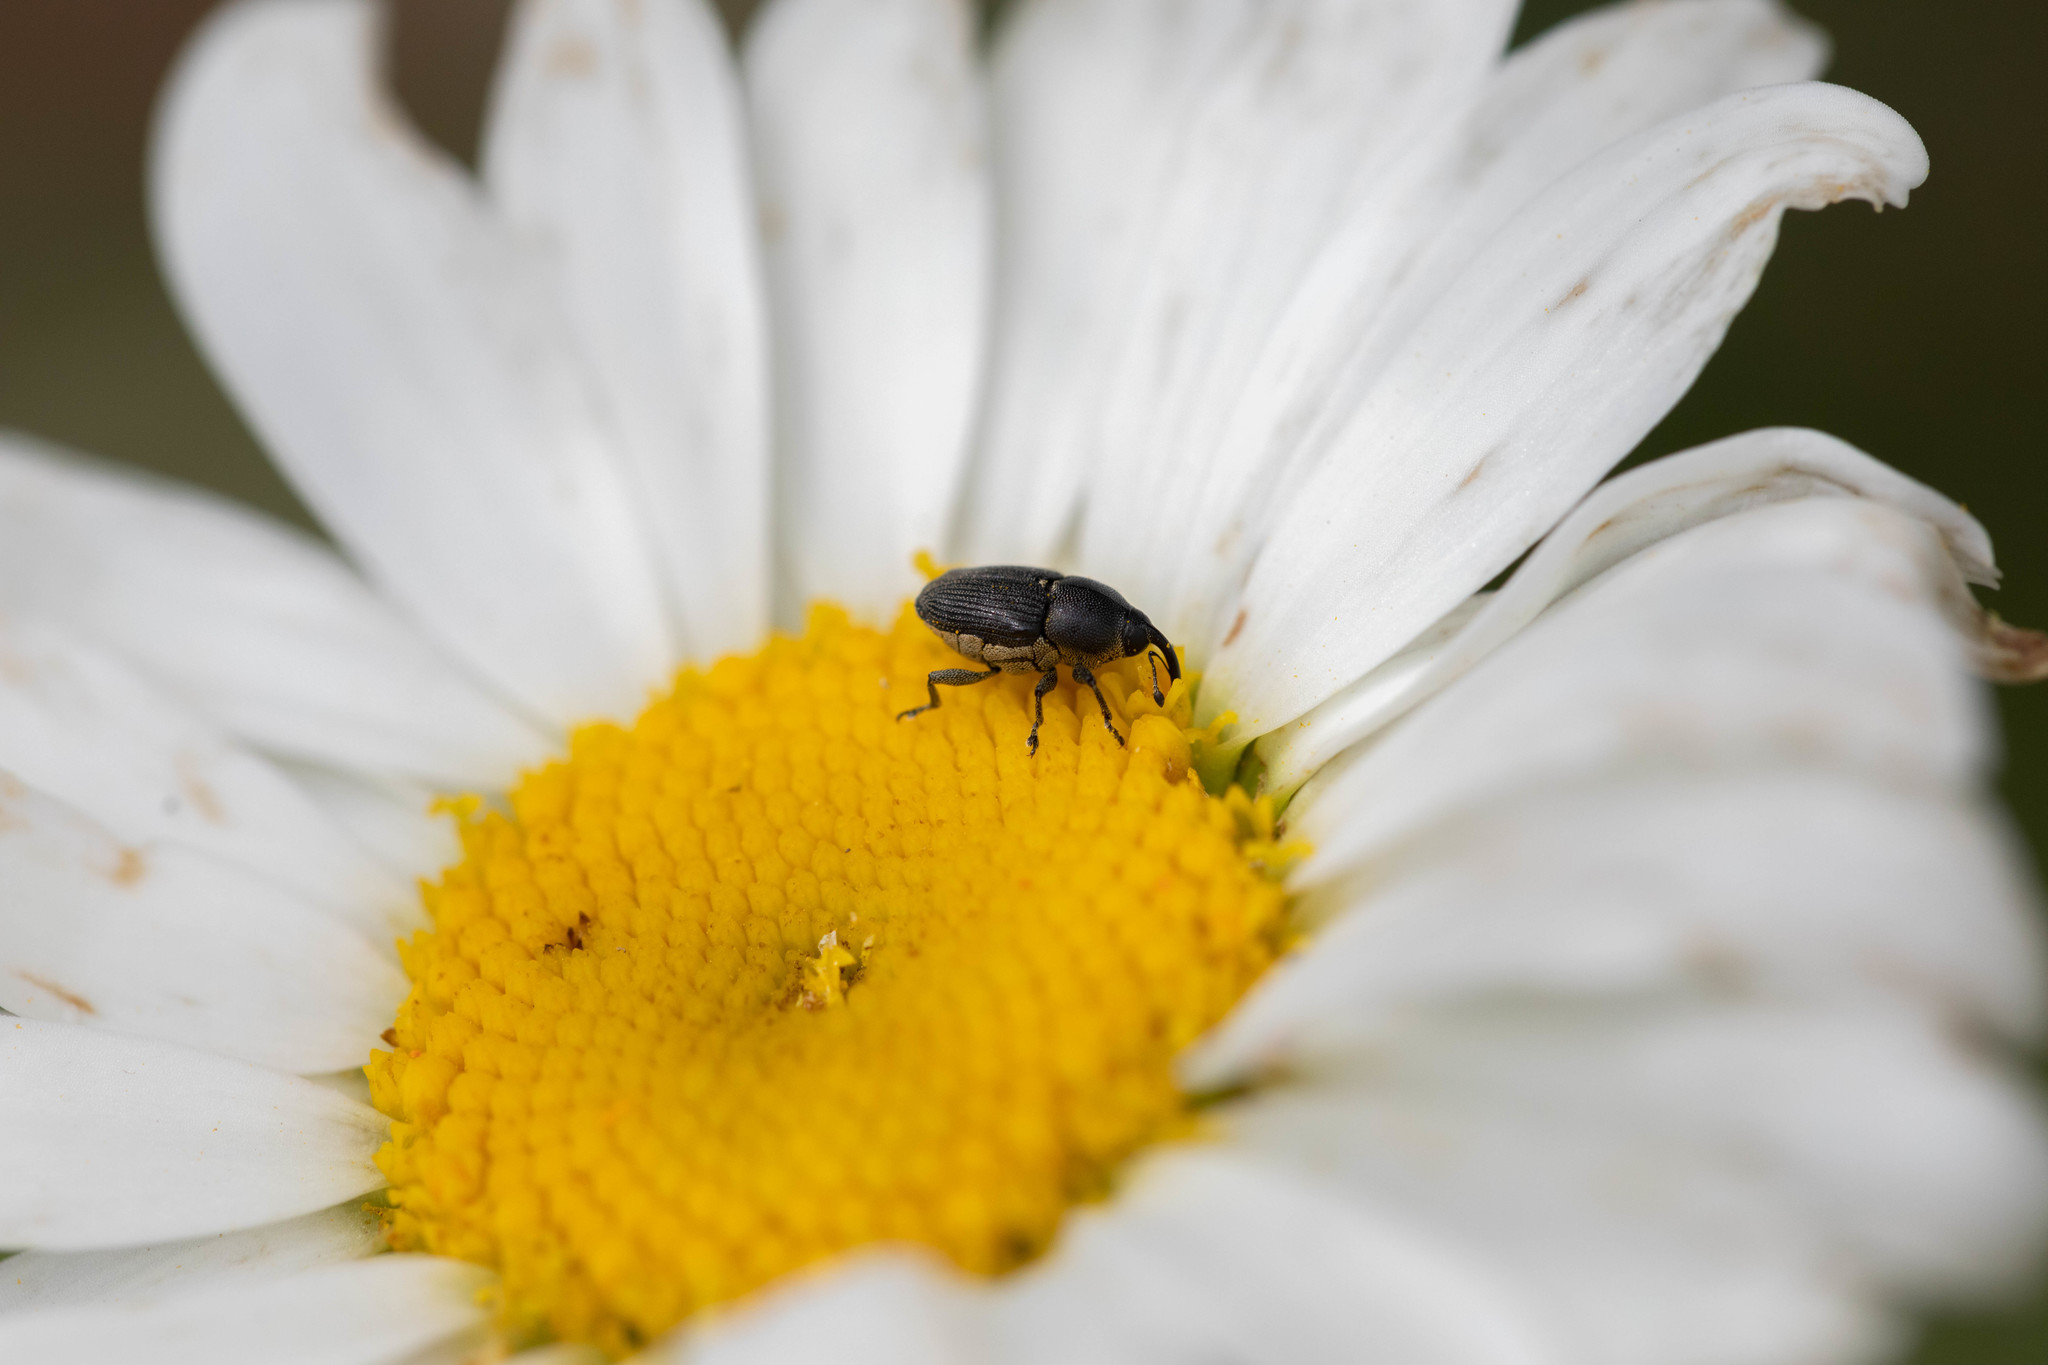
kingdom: Animalia
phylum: Arthropoda
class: Insecta
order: Coleoptera
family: Curculionidae
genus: Odontocorynus
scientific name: Odontocorynus salebrosus
